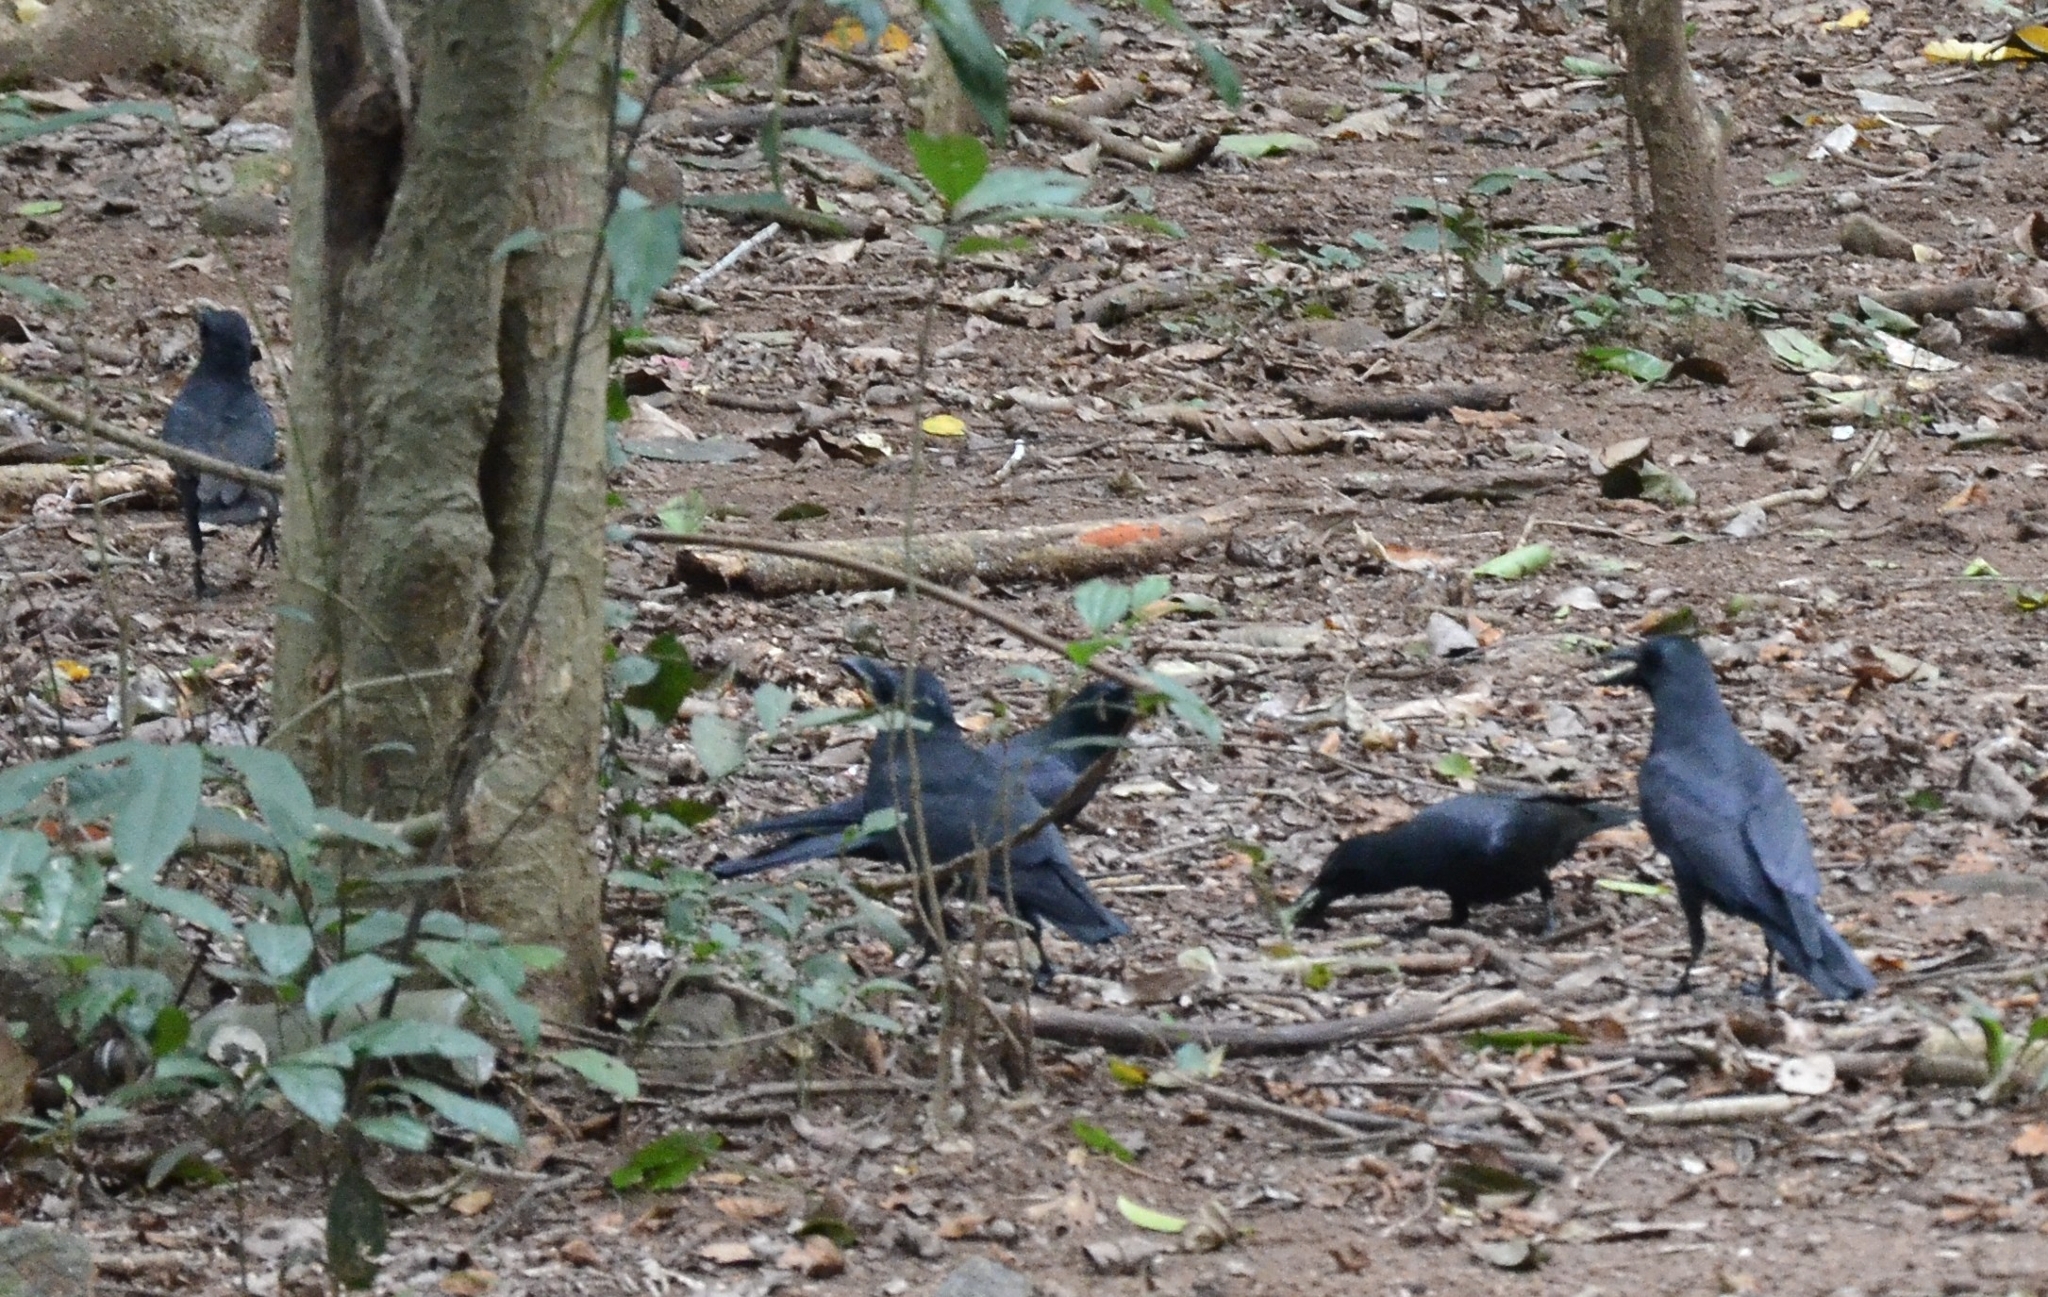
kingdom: Animalia
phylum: Chordata
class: Aves
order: Passeriformes
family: Corvidae
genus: Corvus
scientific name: Corvus macrorhynchos
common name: Large-billed crow
